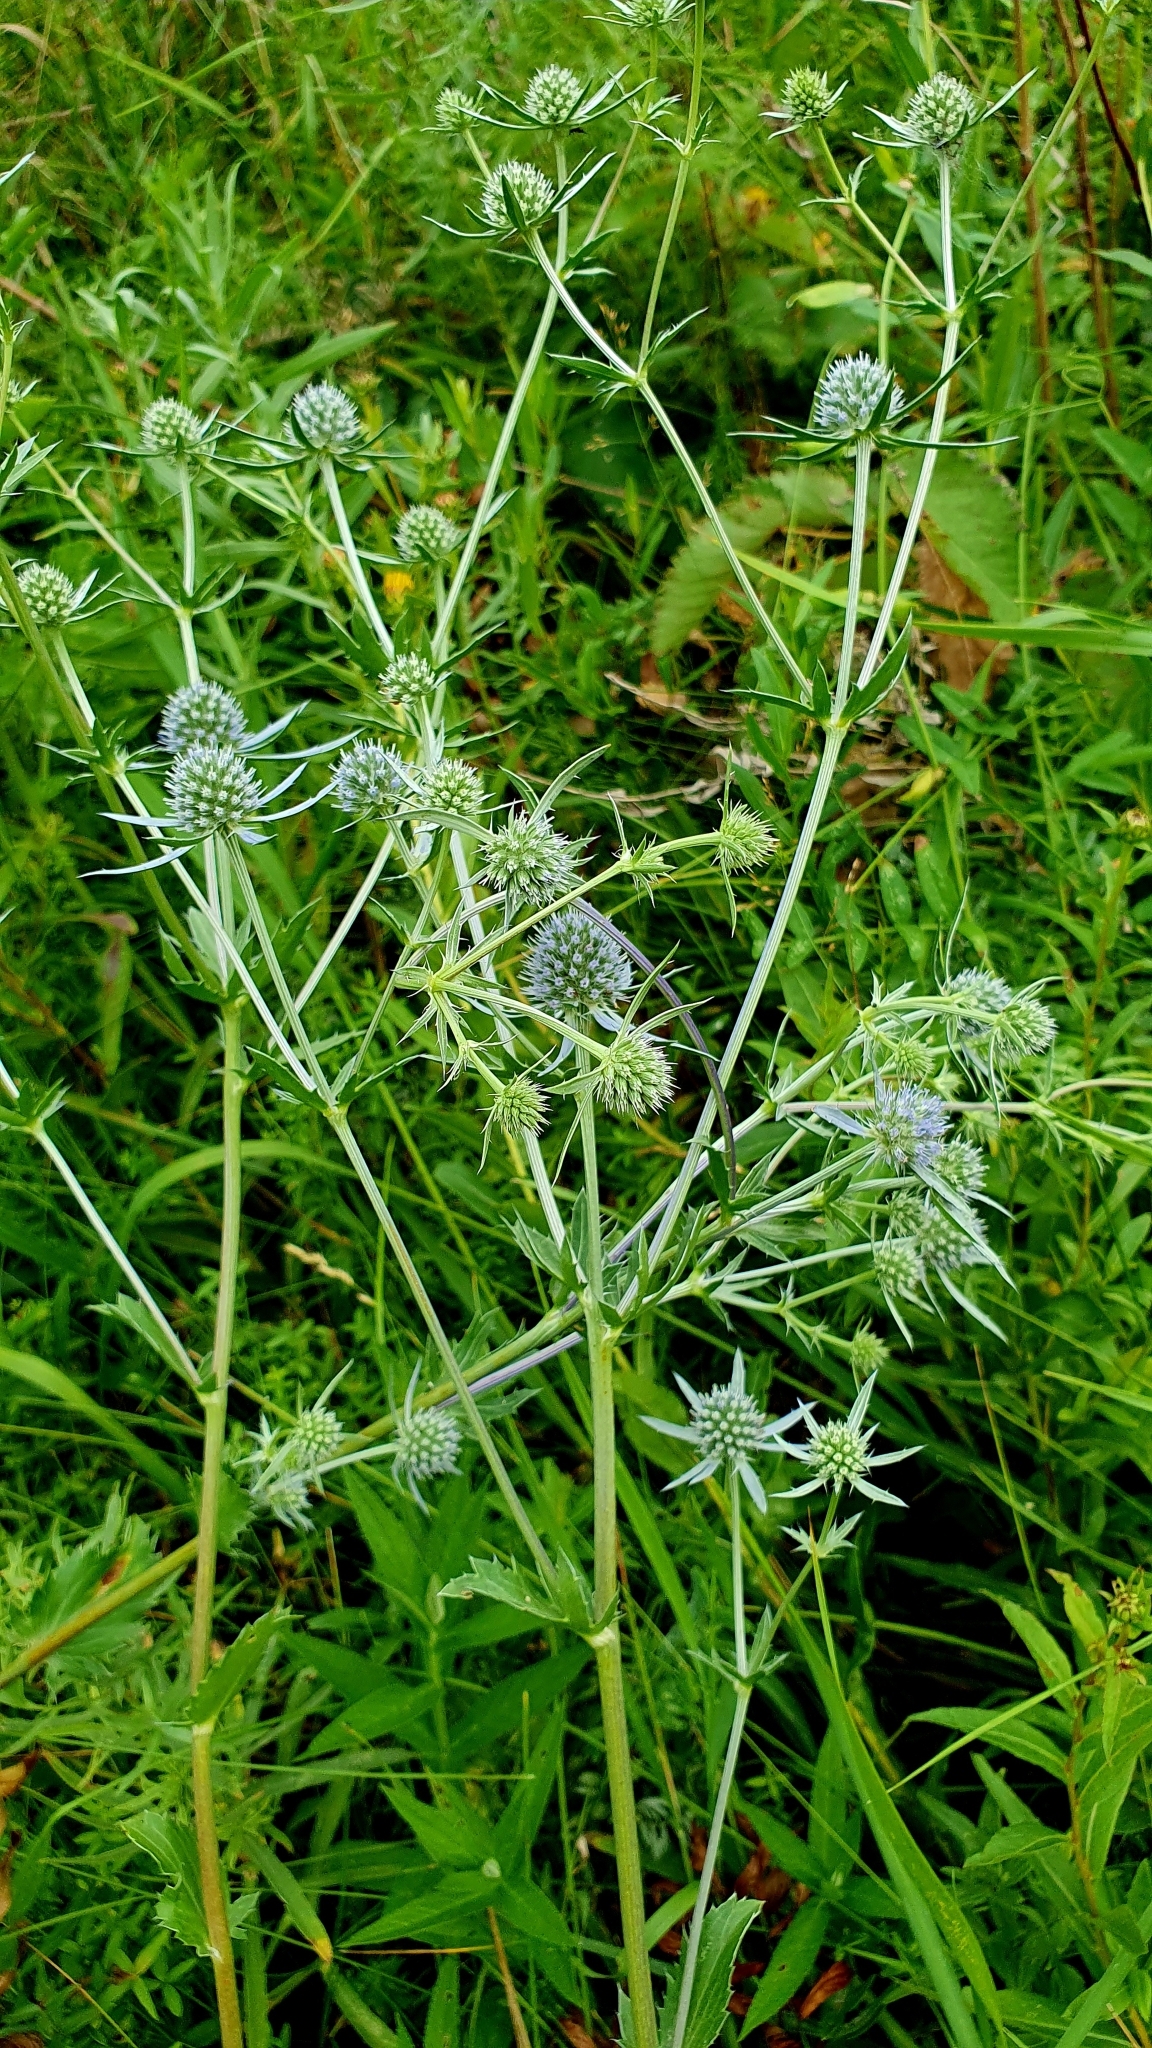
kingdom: Plantae
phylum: Tracheophyta
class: Magnoliopsida
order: Apiales
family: Apiaceae
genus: Eryngium
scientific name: Eryngium planum
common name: Blue eryngo
